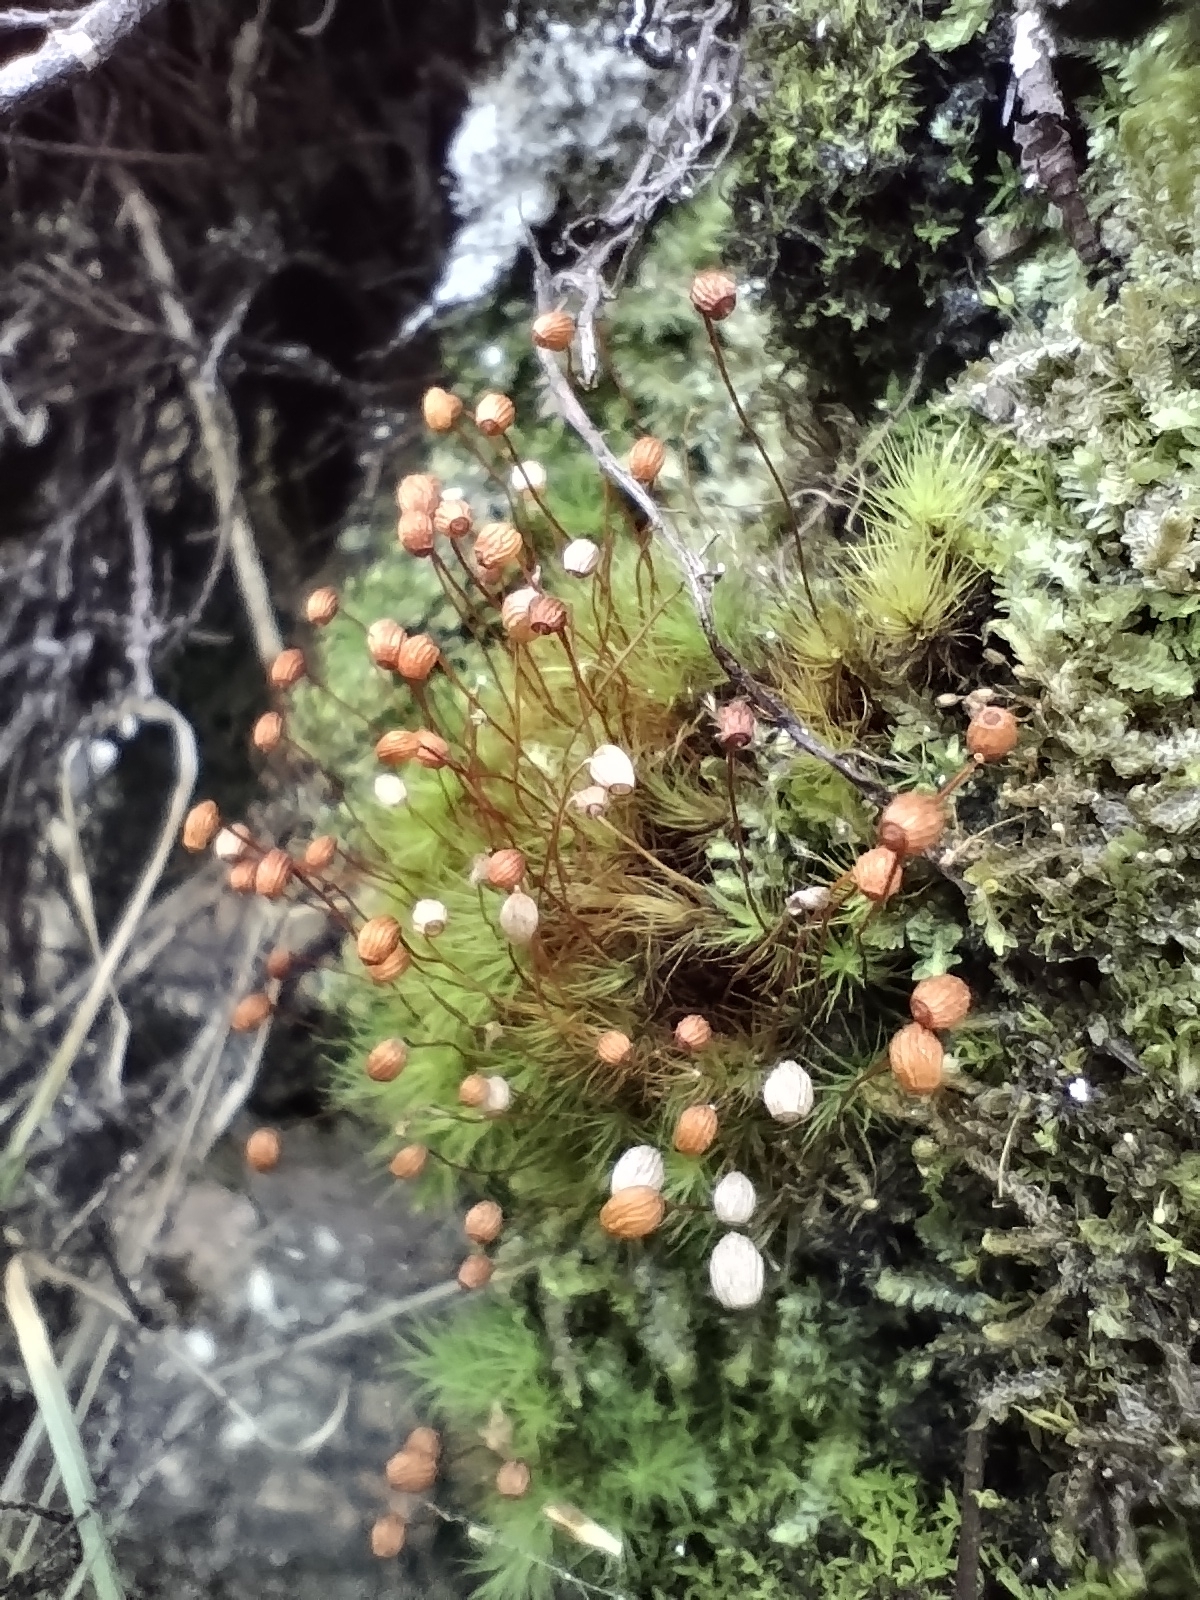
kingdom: Plantae
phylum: Bryophyta
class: Bryopsida
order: Bartramiales
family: Bartramiaceae
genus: Bartramia
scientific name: Bartramia ithyphylla
